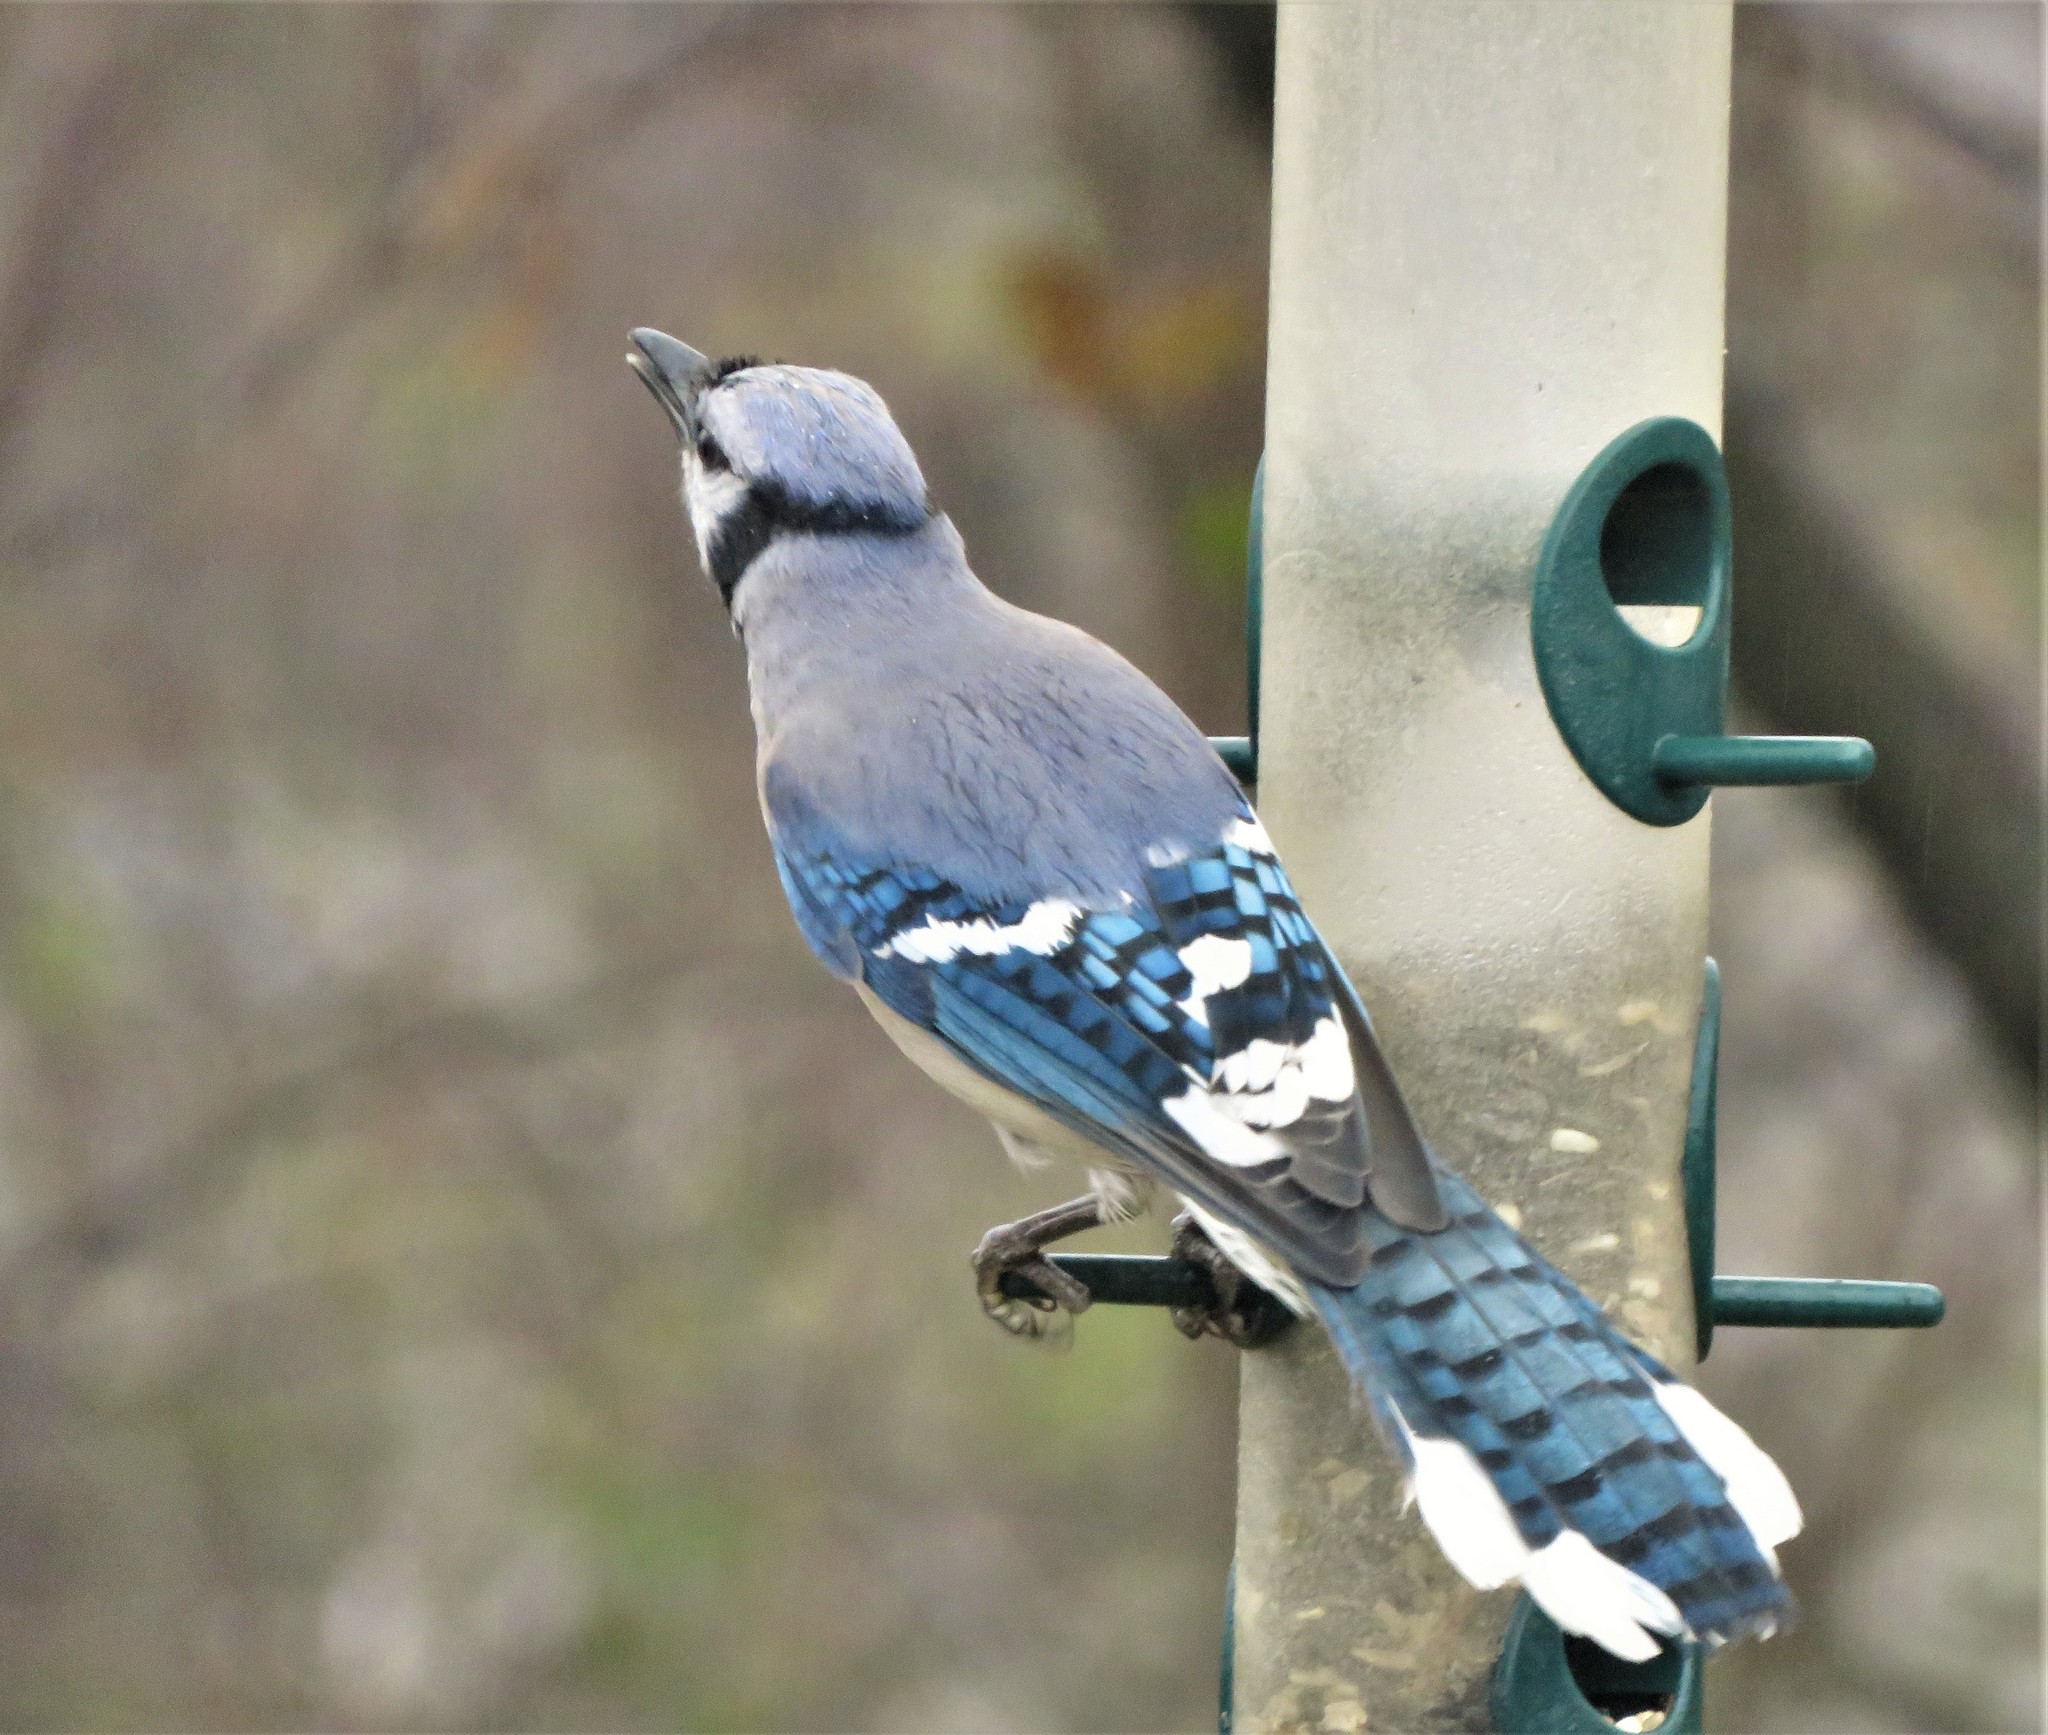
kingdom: Animalia
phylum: Chordata
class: Aves
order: Passeriformes
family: Corvidae
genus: Cyanocitta
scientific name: Cyanocitta cristata
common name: Blue jay
